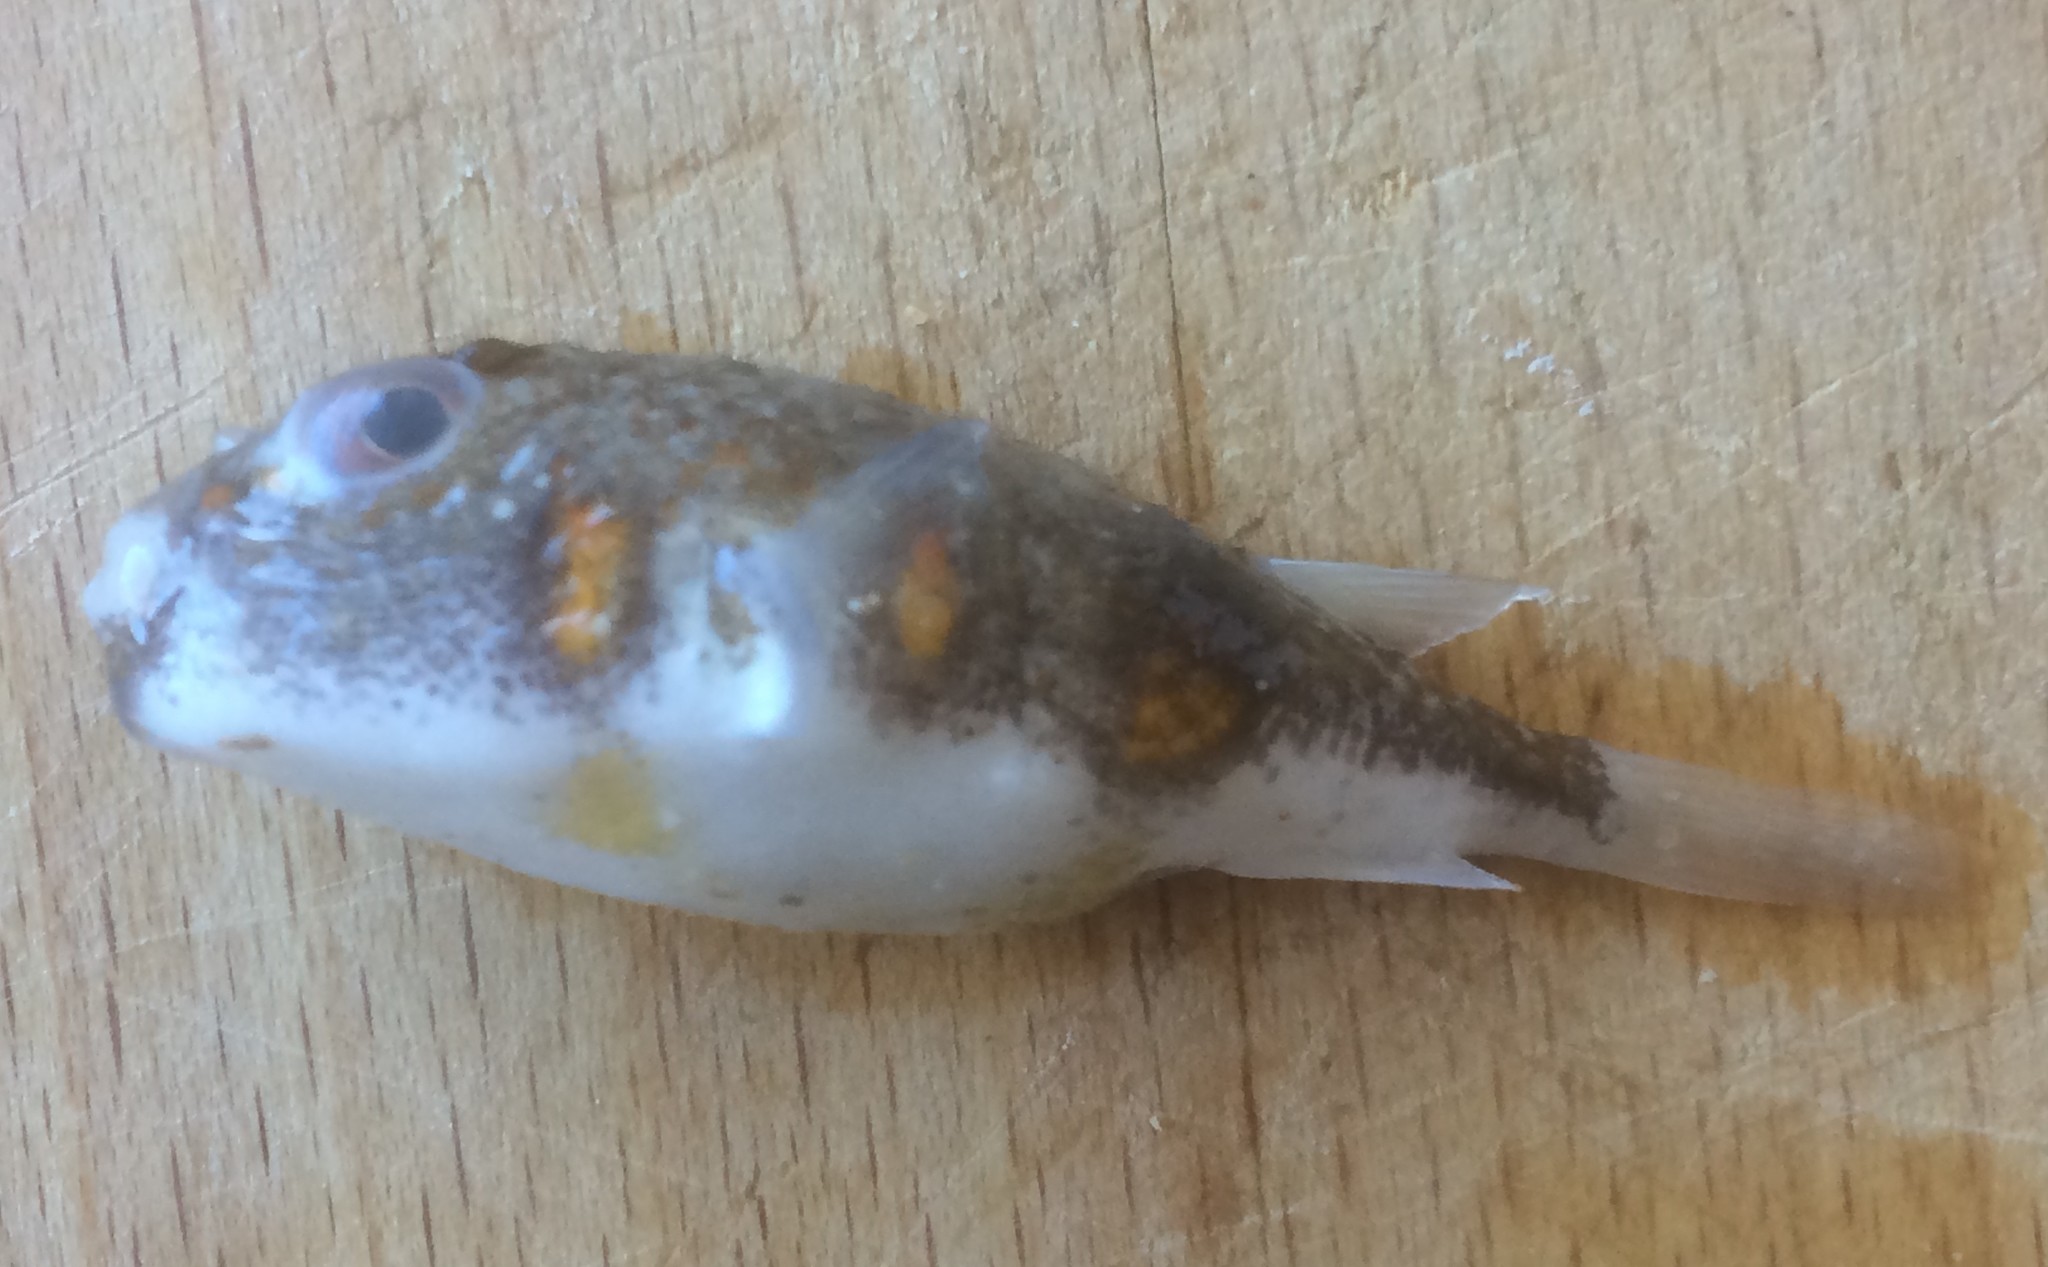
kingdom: Animalia
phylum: Chordata
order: Tetraodontiformes
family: Tetraodontidae
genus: Polyspina
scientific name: Polyspina piosae
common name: Orange-barred pufferfish
